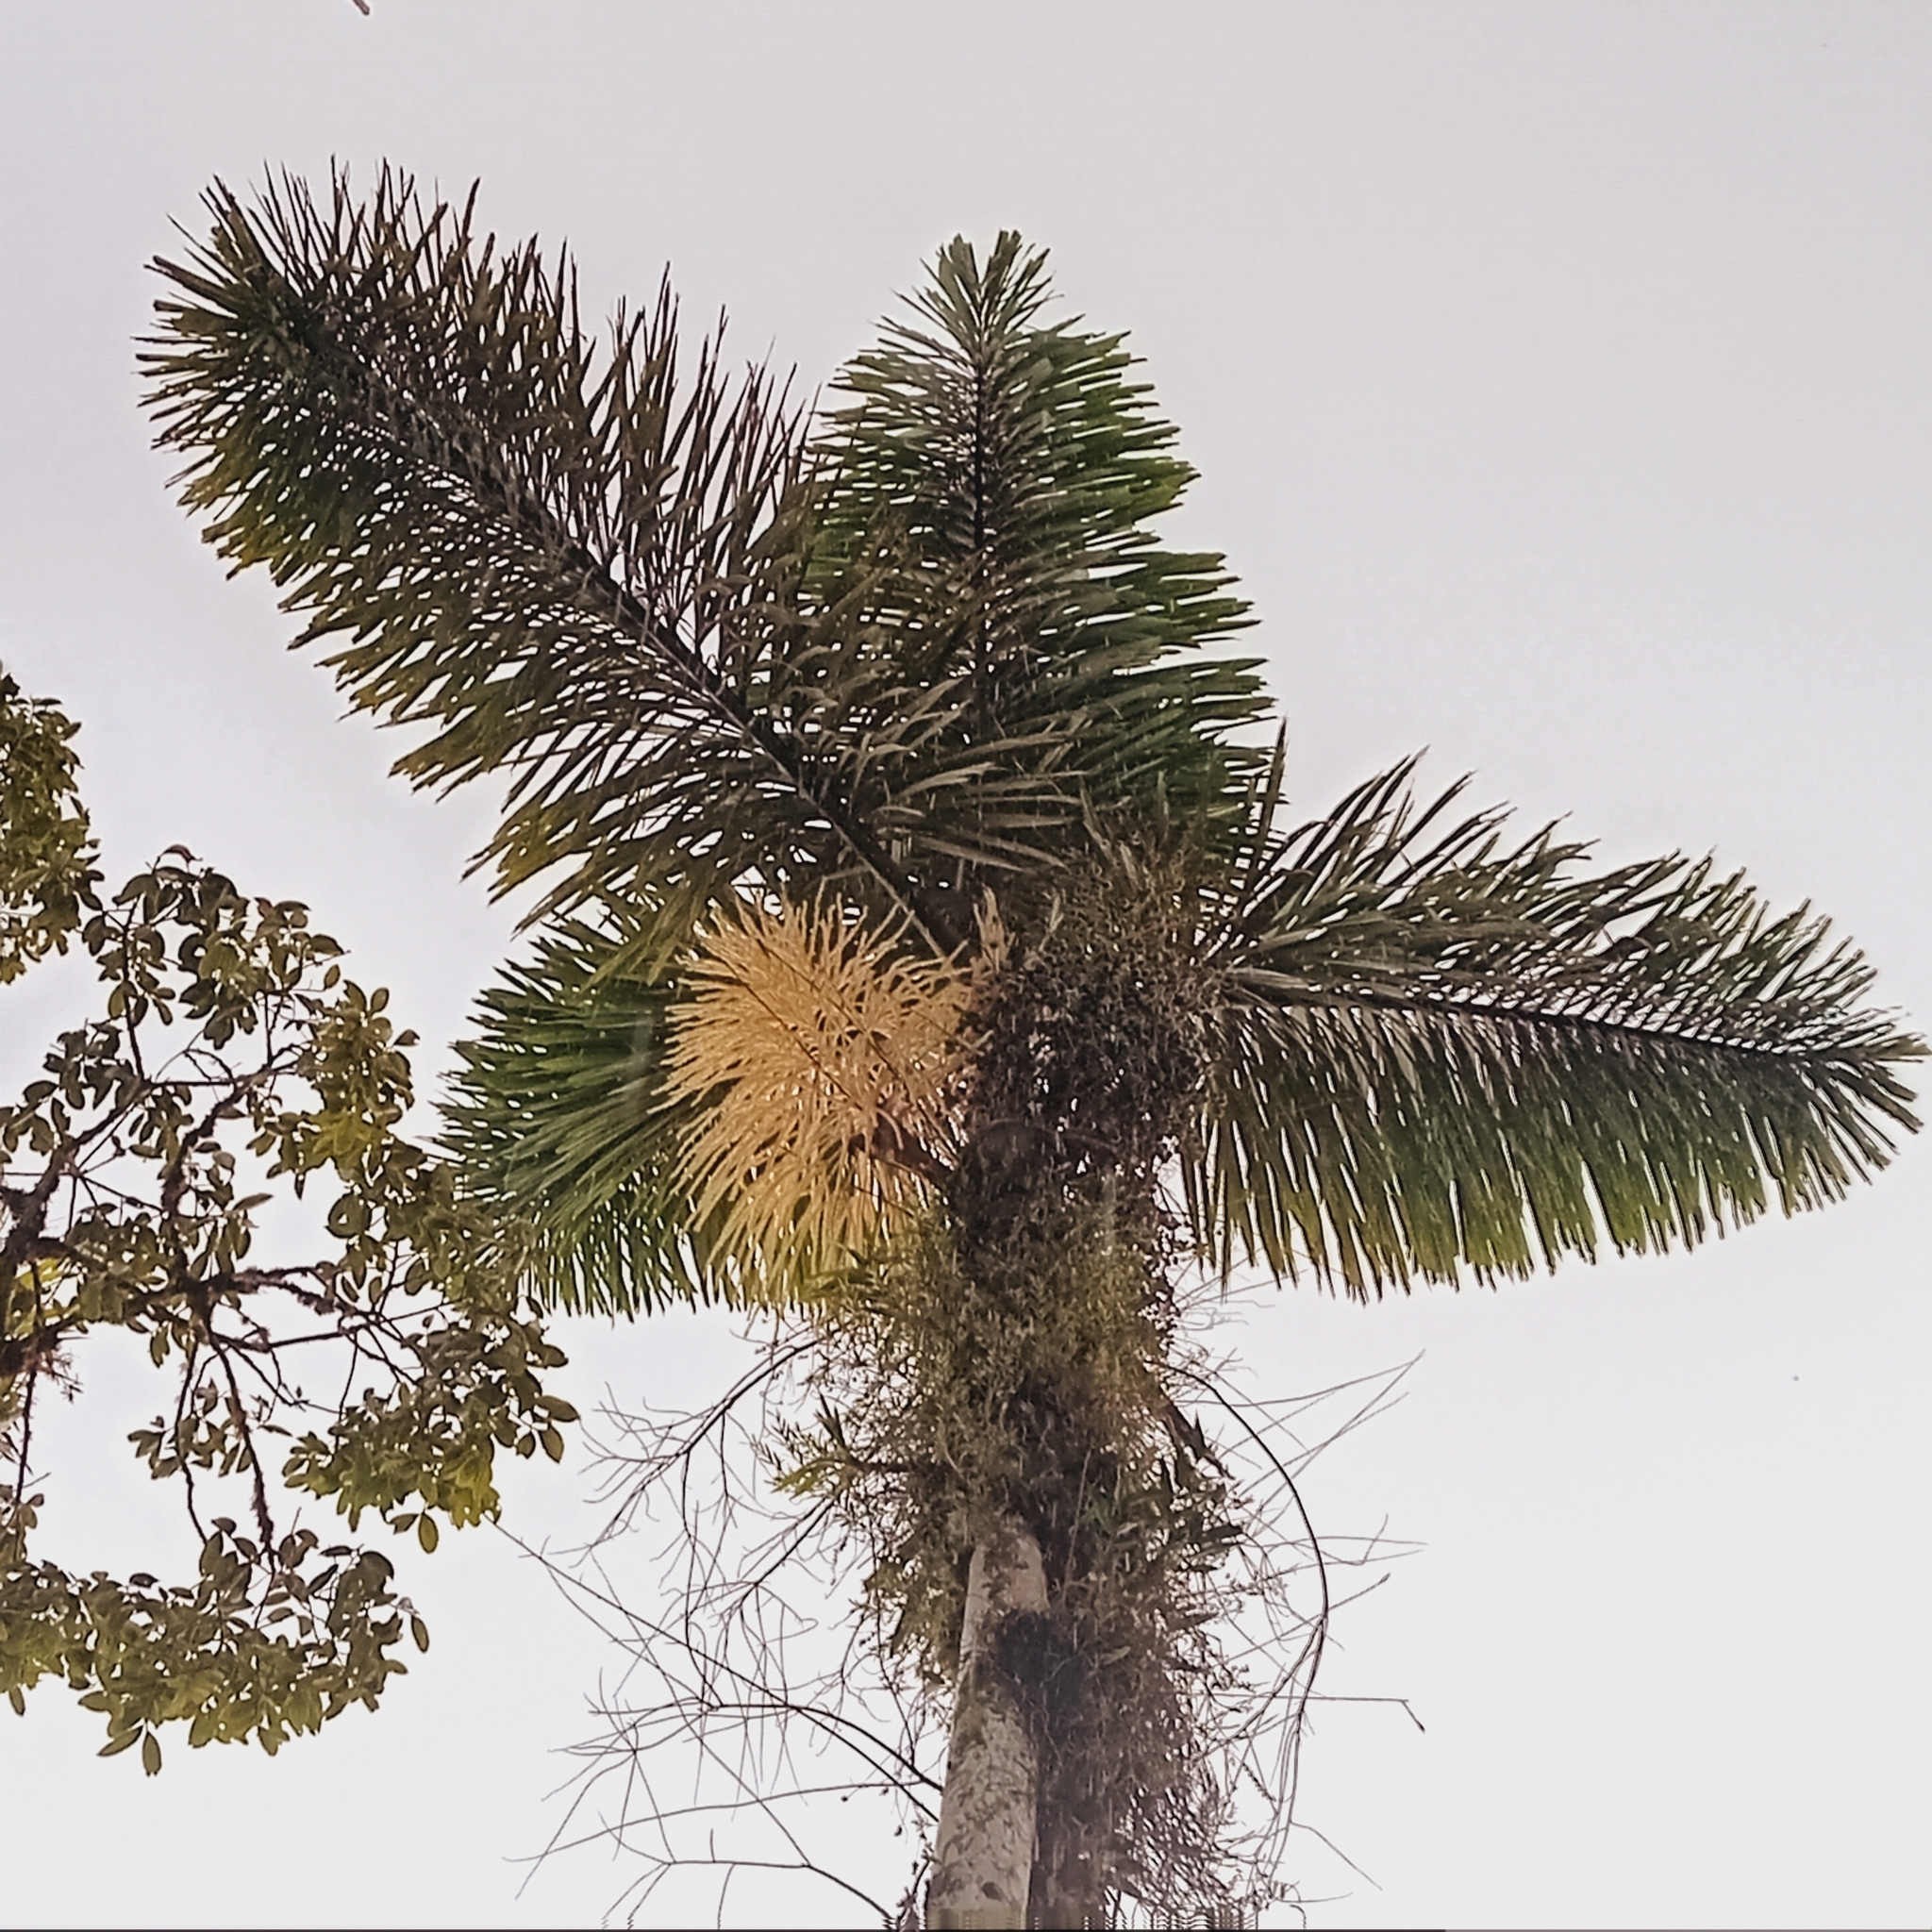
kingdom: Plantae
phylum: Tracheophyta
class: Liliopsida
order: Arecales
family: Arecaceae
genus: Dictyocaryum
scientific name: Dictyocaryum lamarckianum
